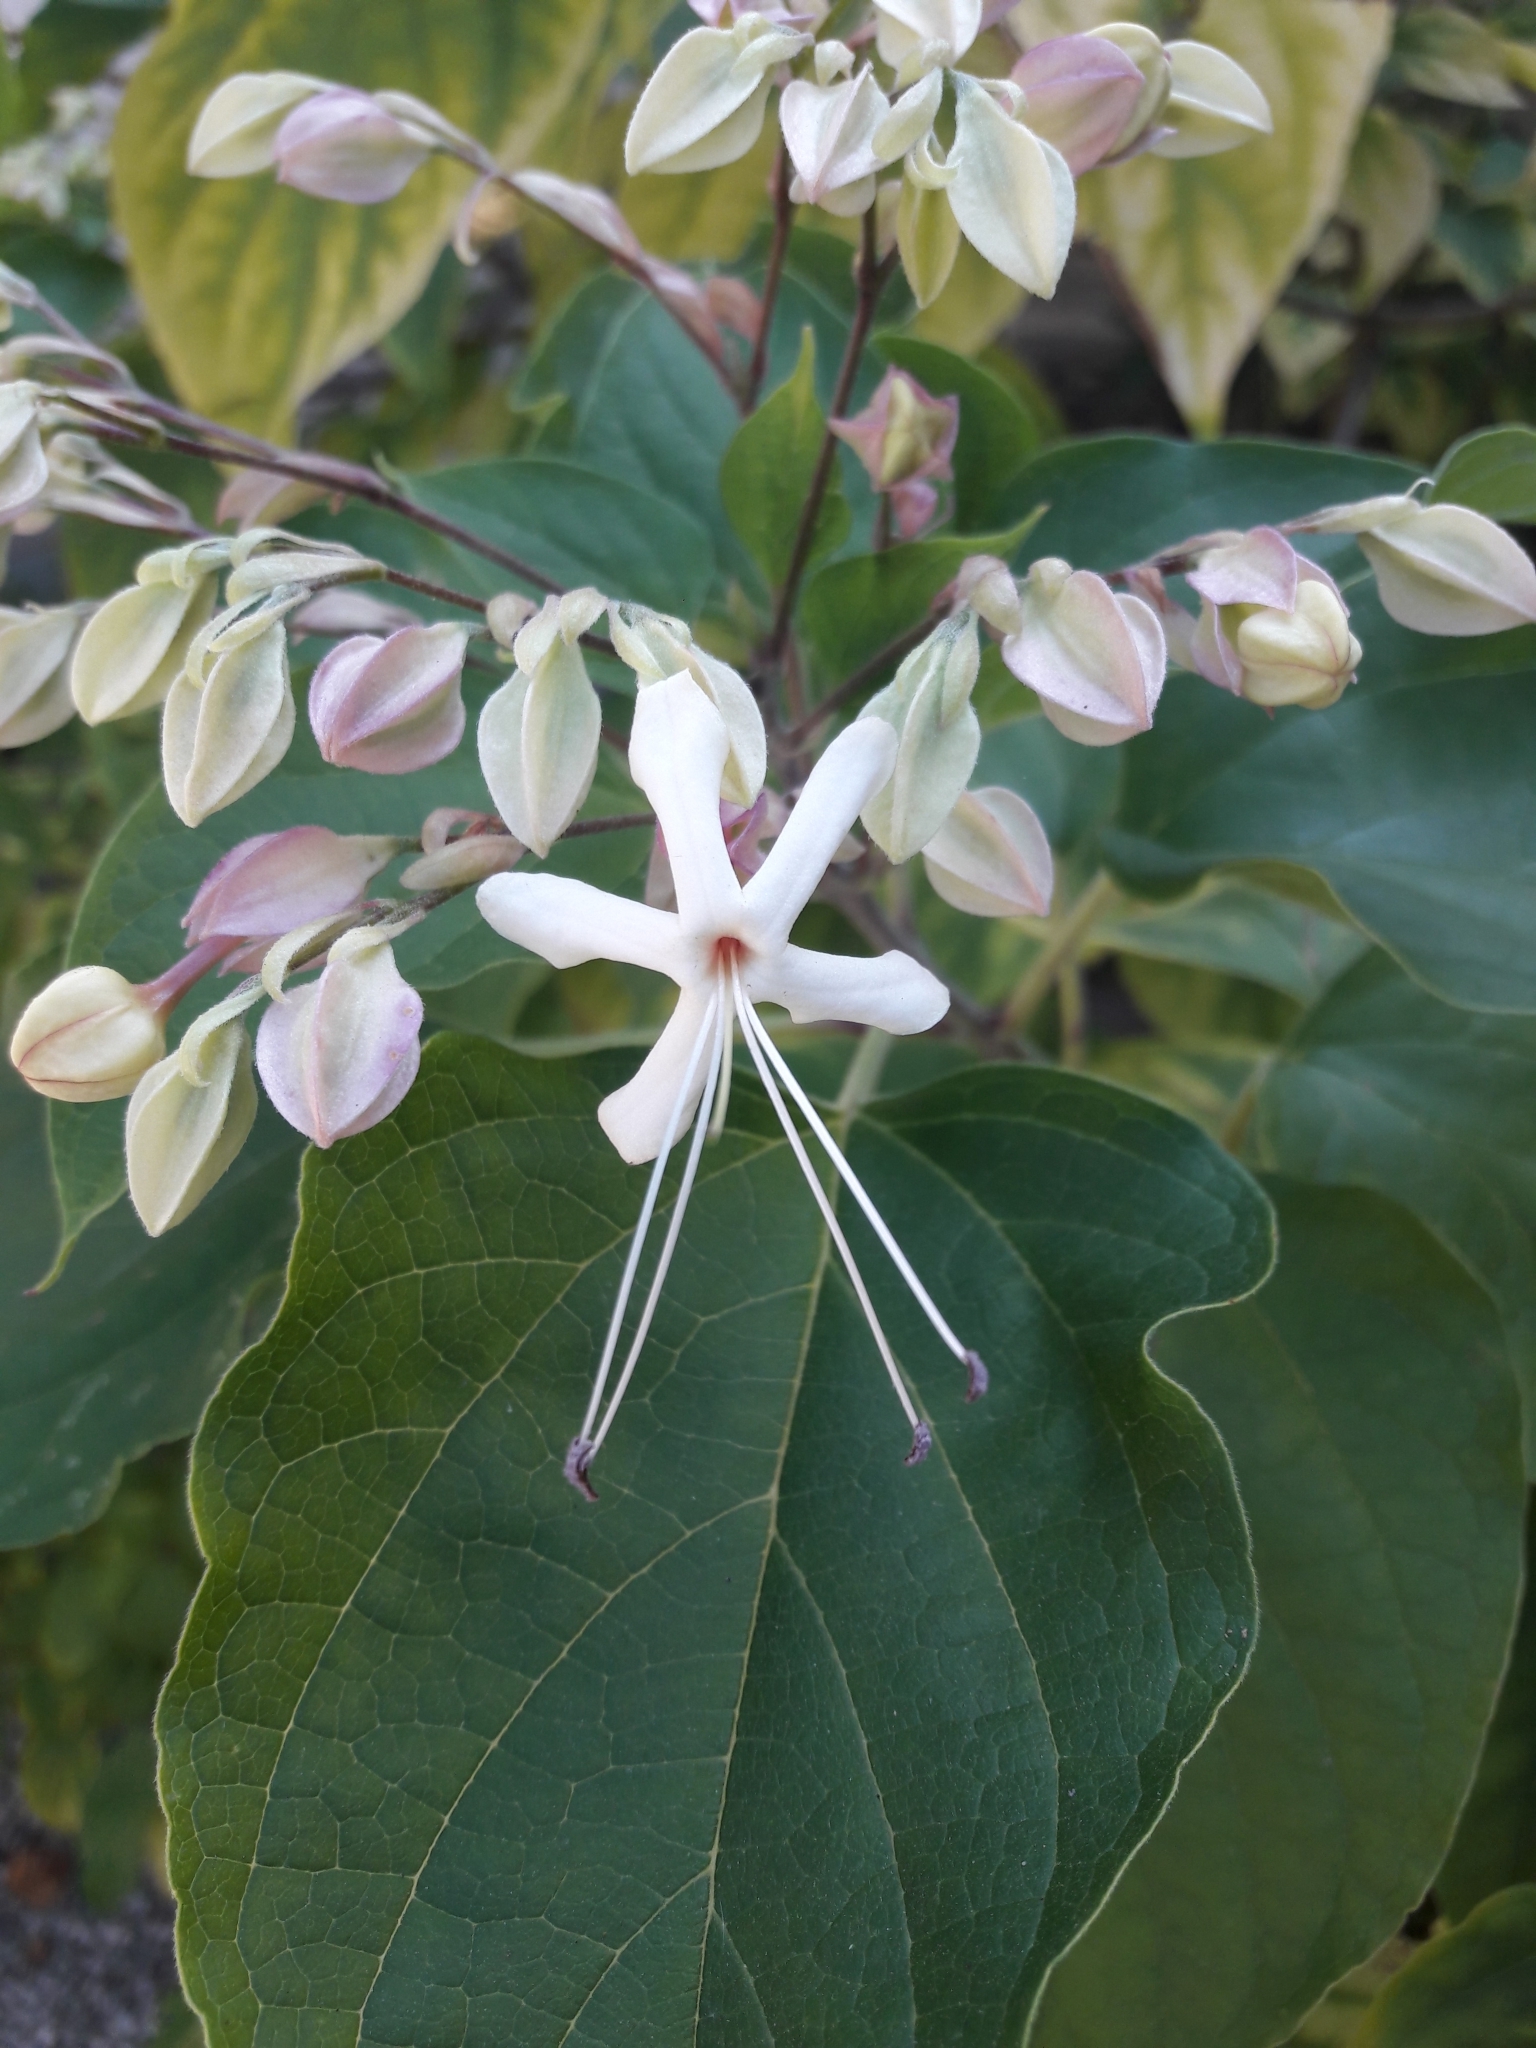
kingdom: Plantae
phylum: Tracheophyta
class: Magnoliopsida
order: Lamiales
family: Lamiaceae
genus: Clerodendrum
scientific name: Clerodendrum trichotomum
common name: Harlequin glorybower
